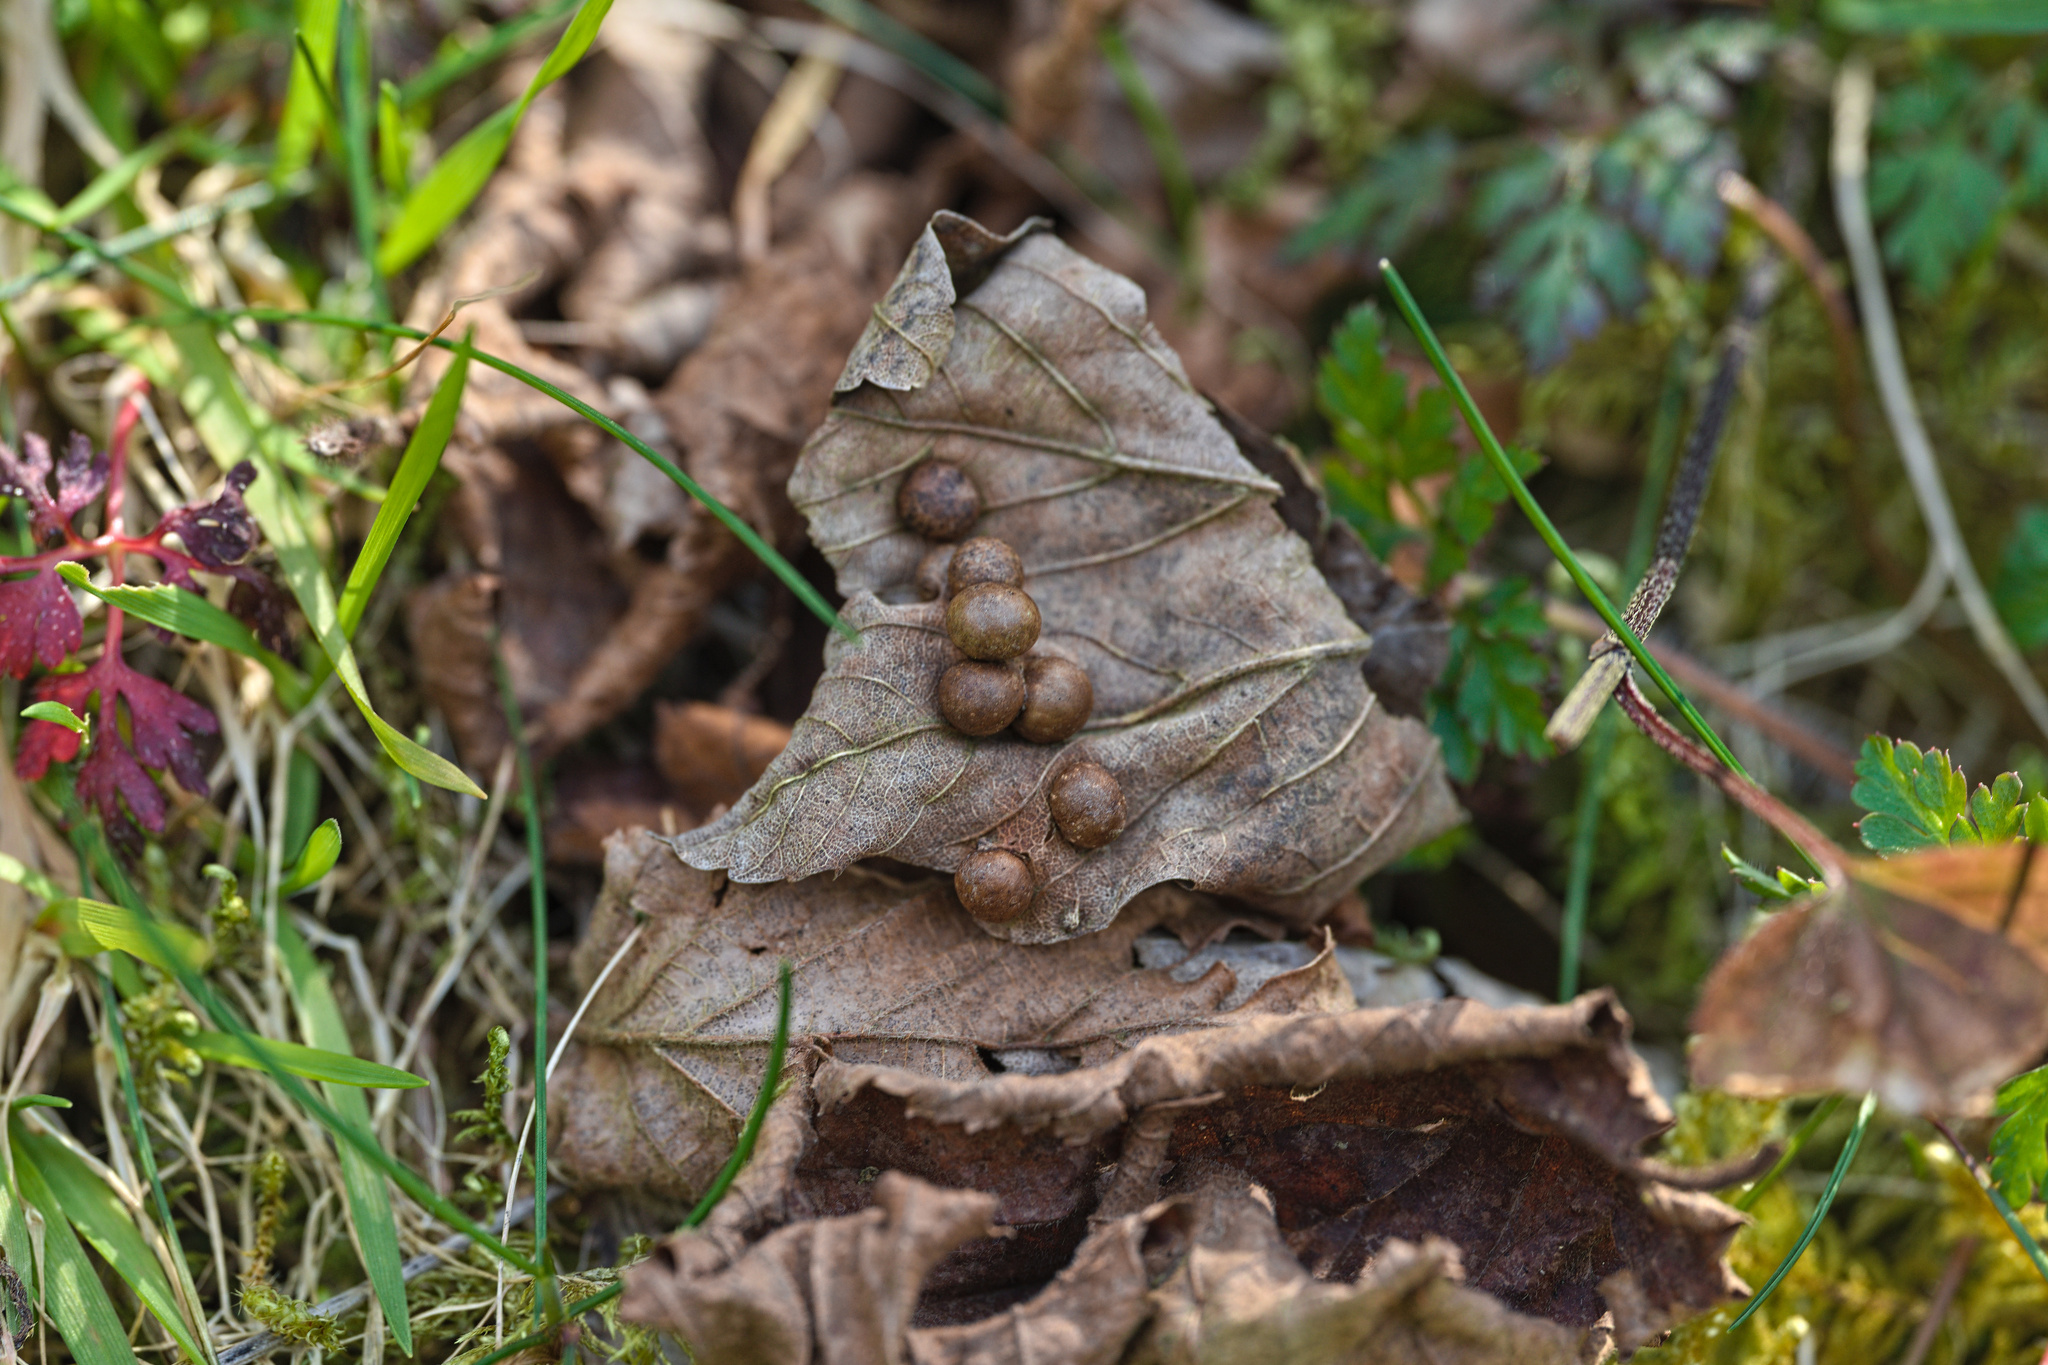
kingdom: Animalia
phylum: Arthropoda
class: Insecta
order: Hymenoptera
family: Cynipidae
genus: Pediaspis
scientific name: Pediaspis aceris
